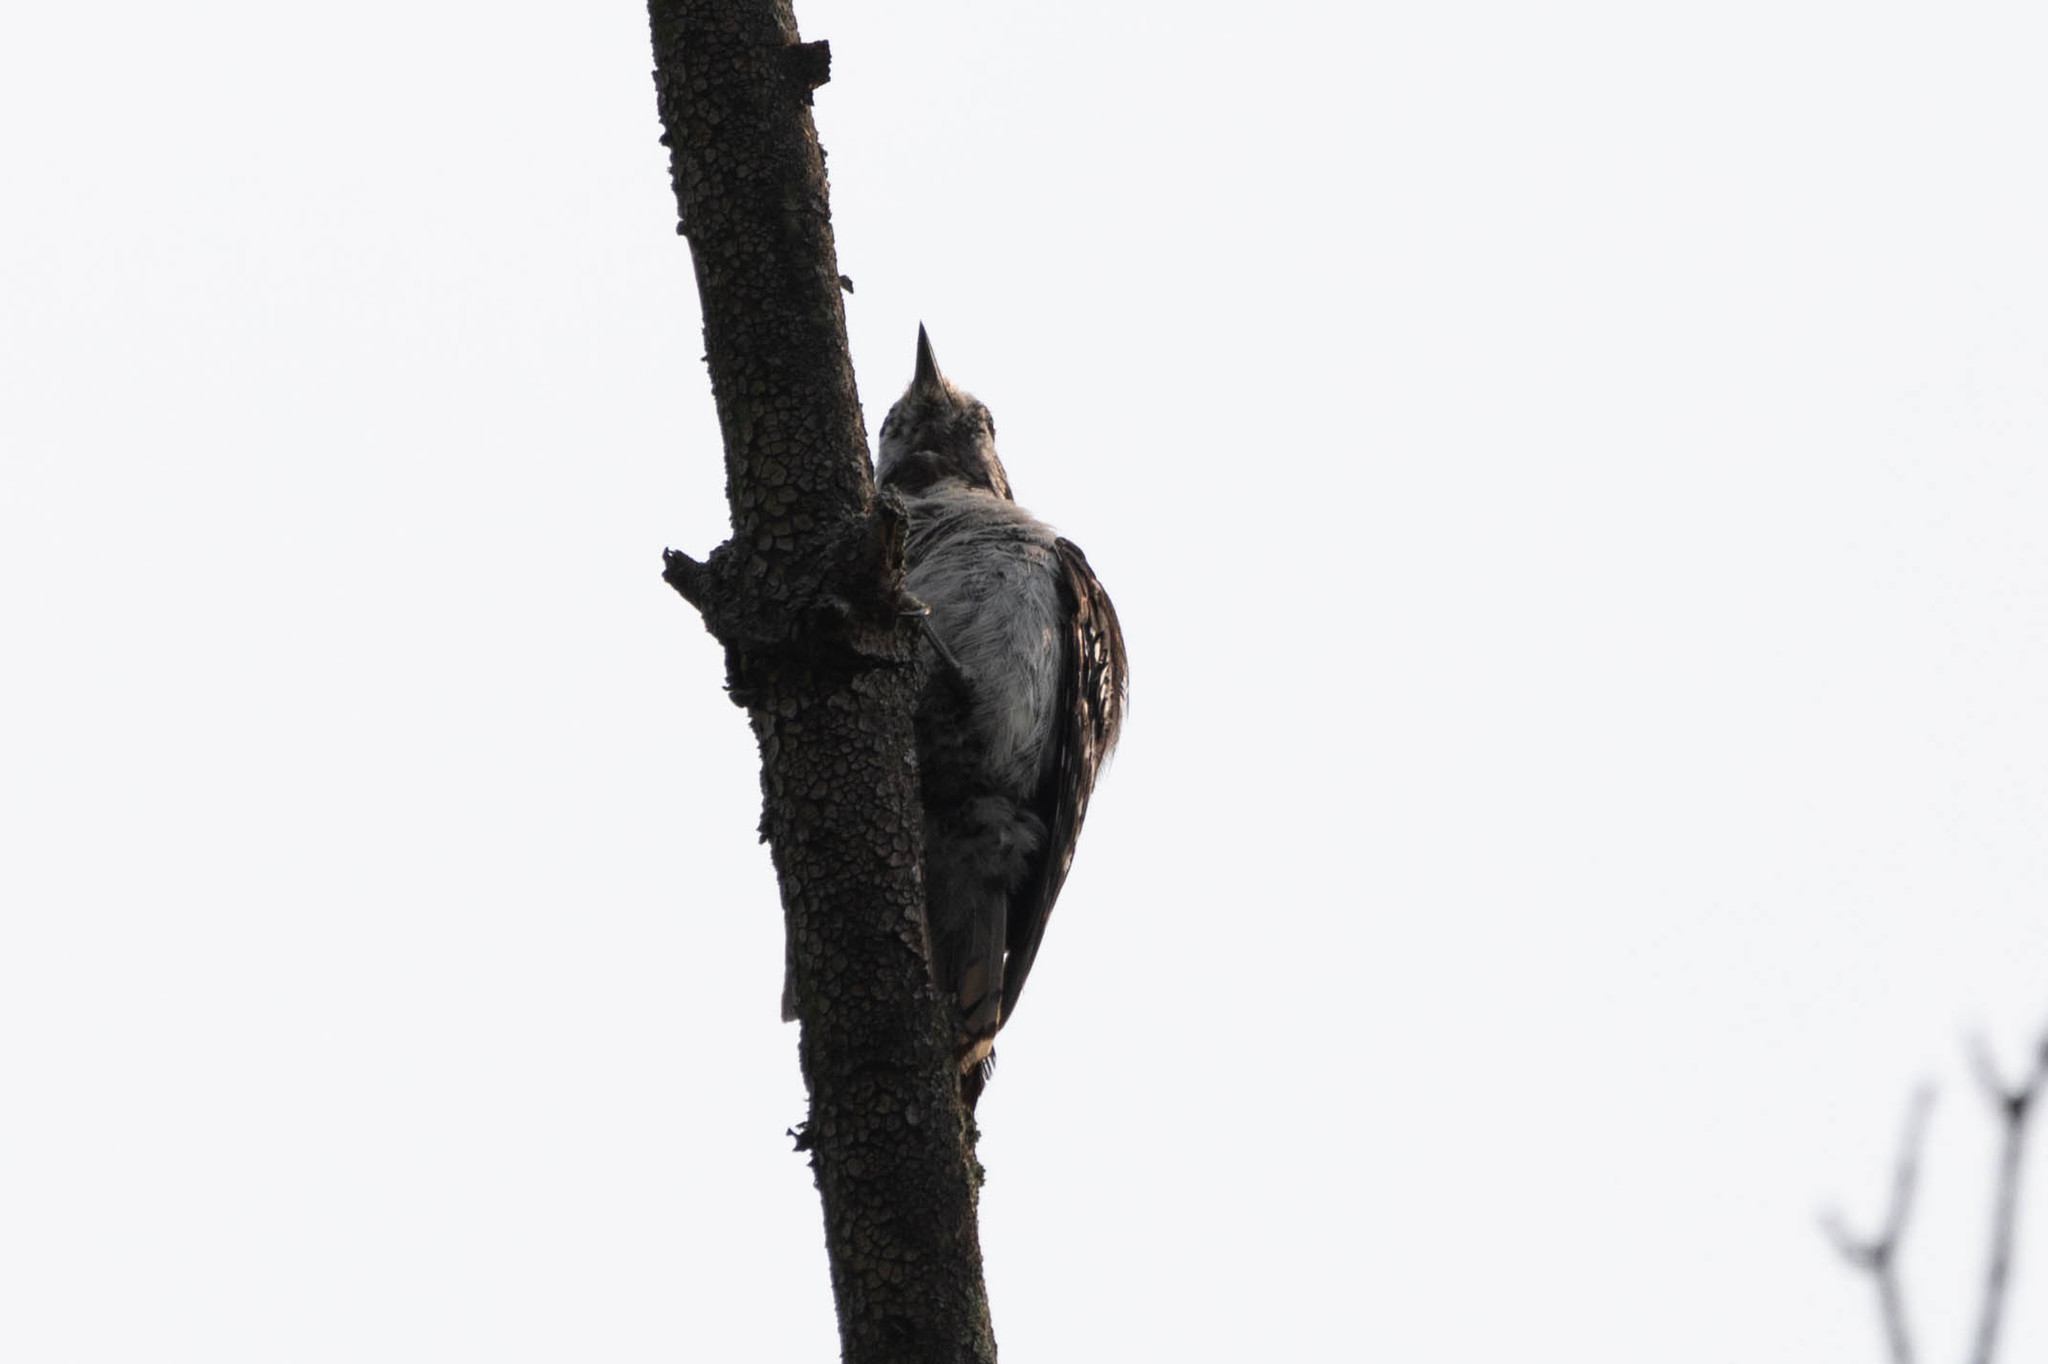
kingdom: Animalia
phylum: Chordata
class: Aves
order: Piciformes
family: Picidae
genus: Dryobates
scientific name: Dryobates pubescens
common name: Downy woodpecker
